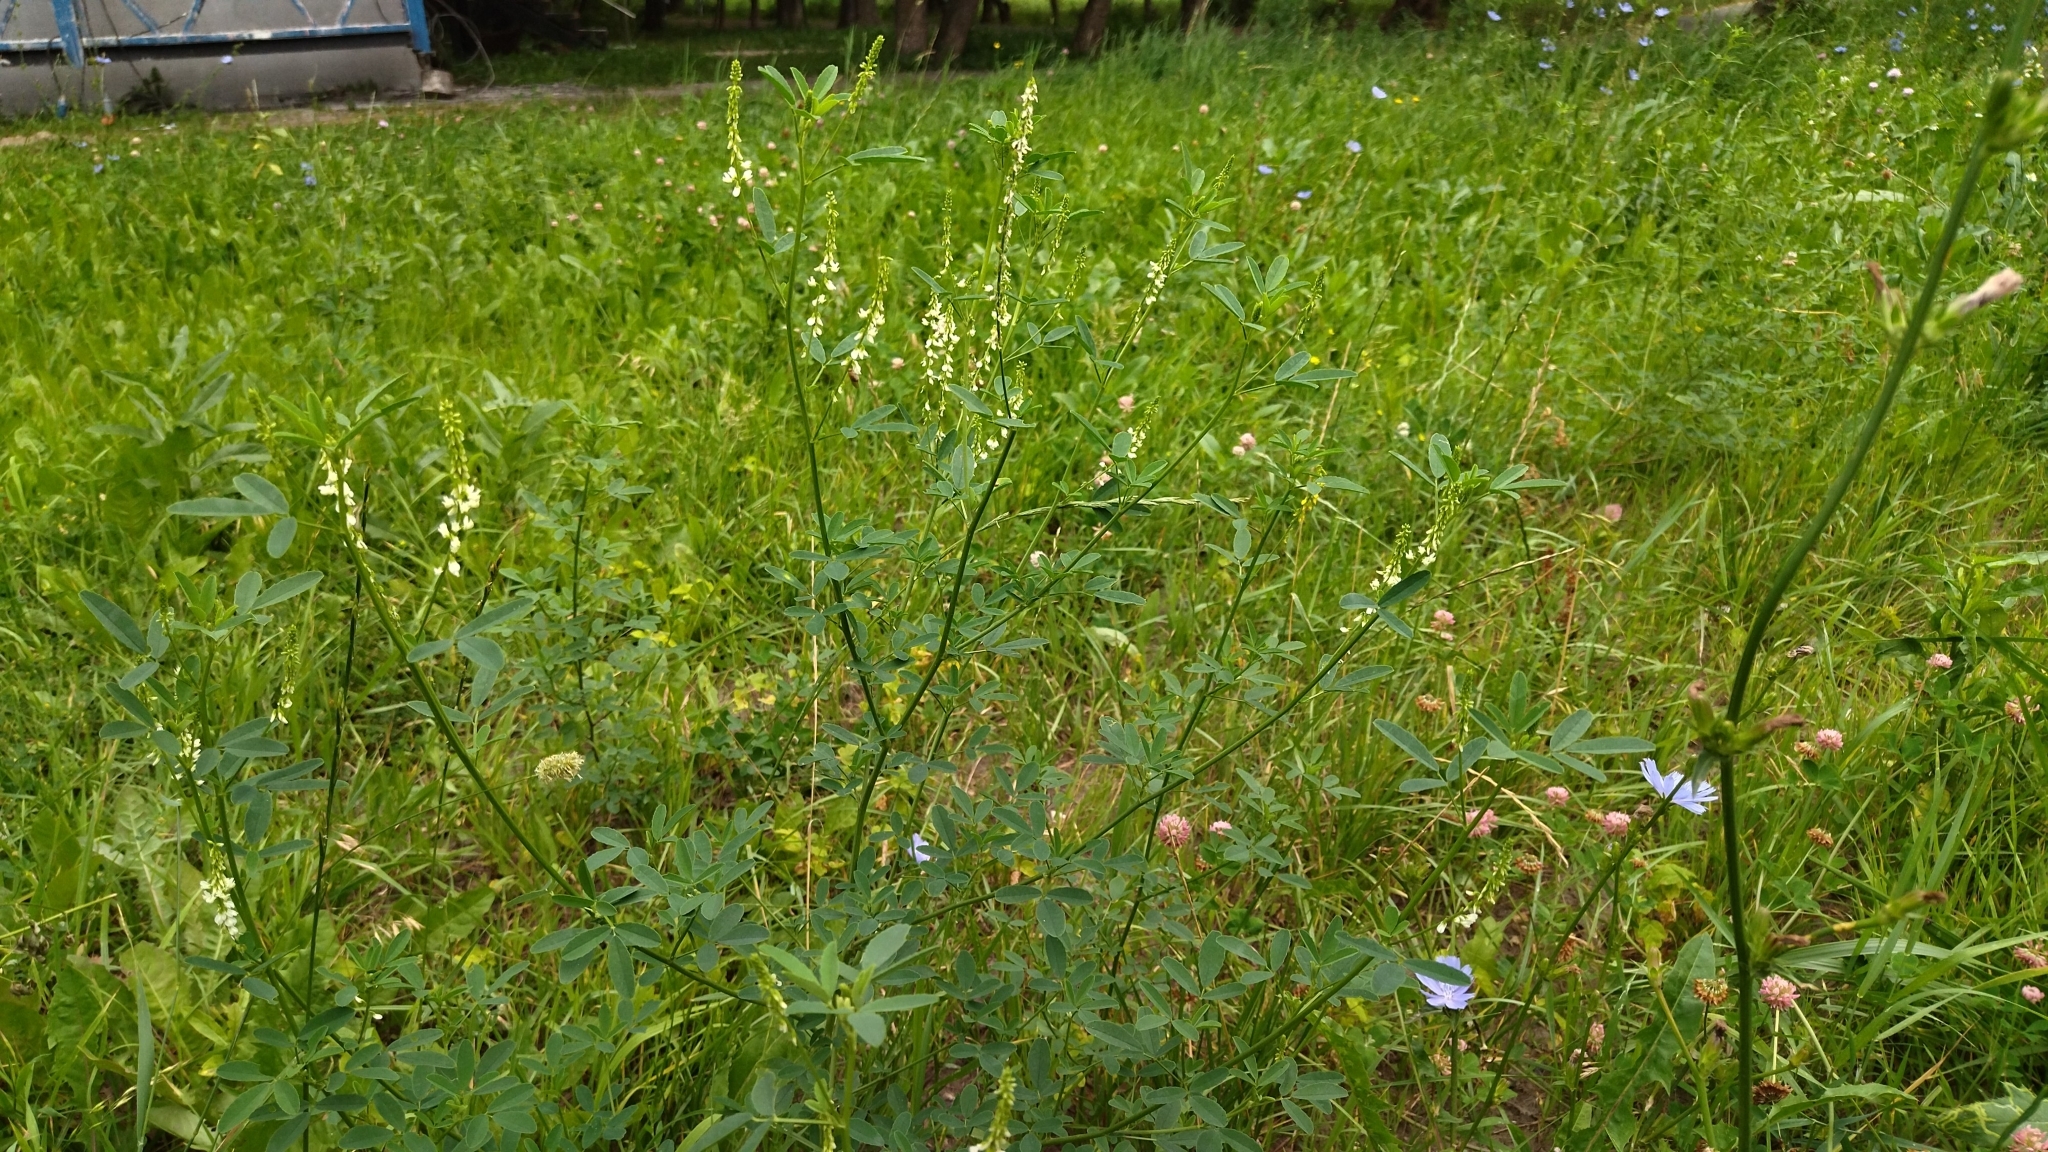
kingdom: Plantae
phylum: Tracheophyta
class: Magnoliopsida
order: Fabales
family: Fabaceae
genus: Melilotus
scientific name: Melilotus albus
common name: White melilot
